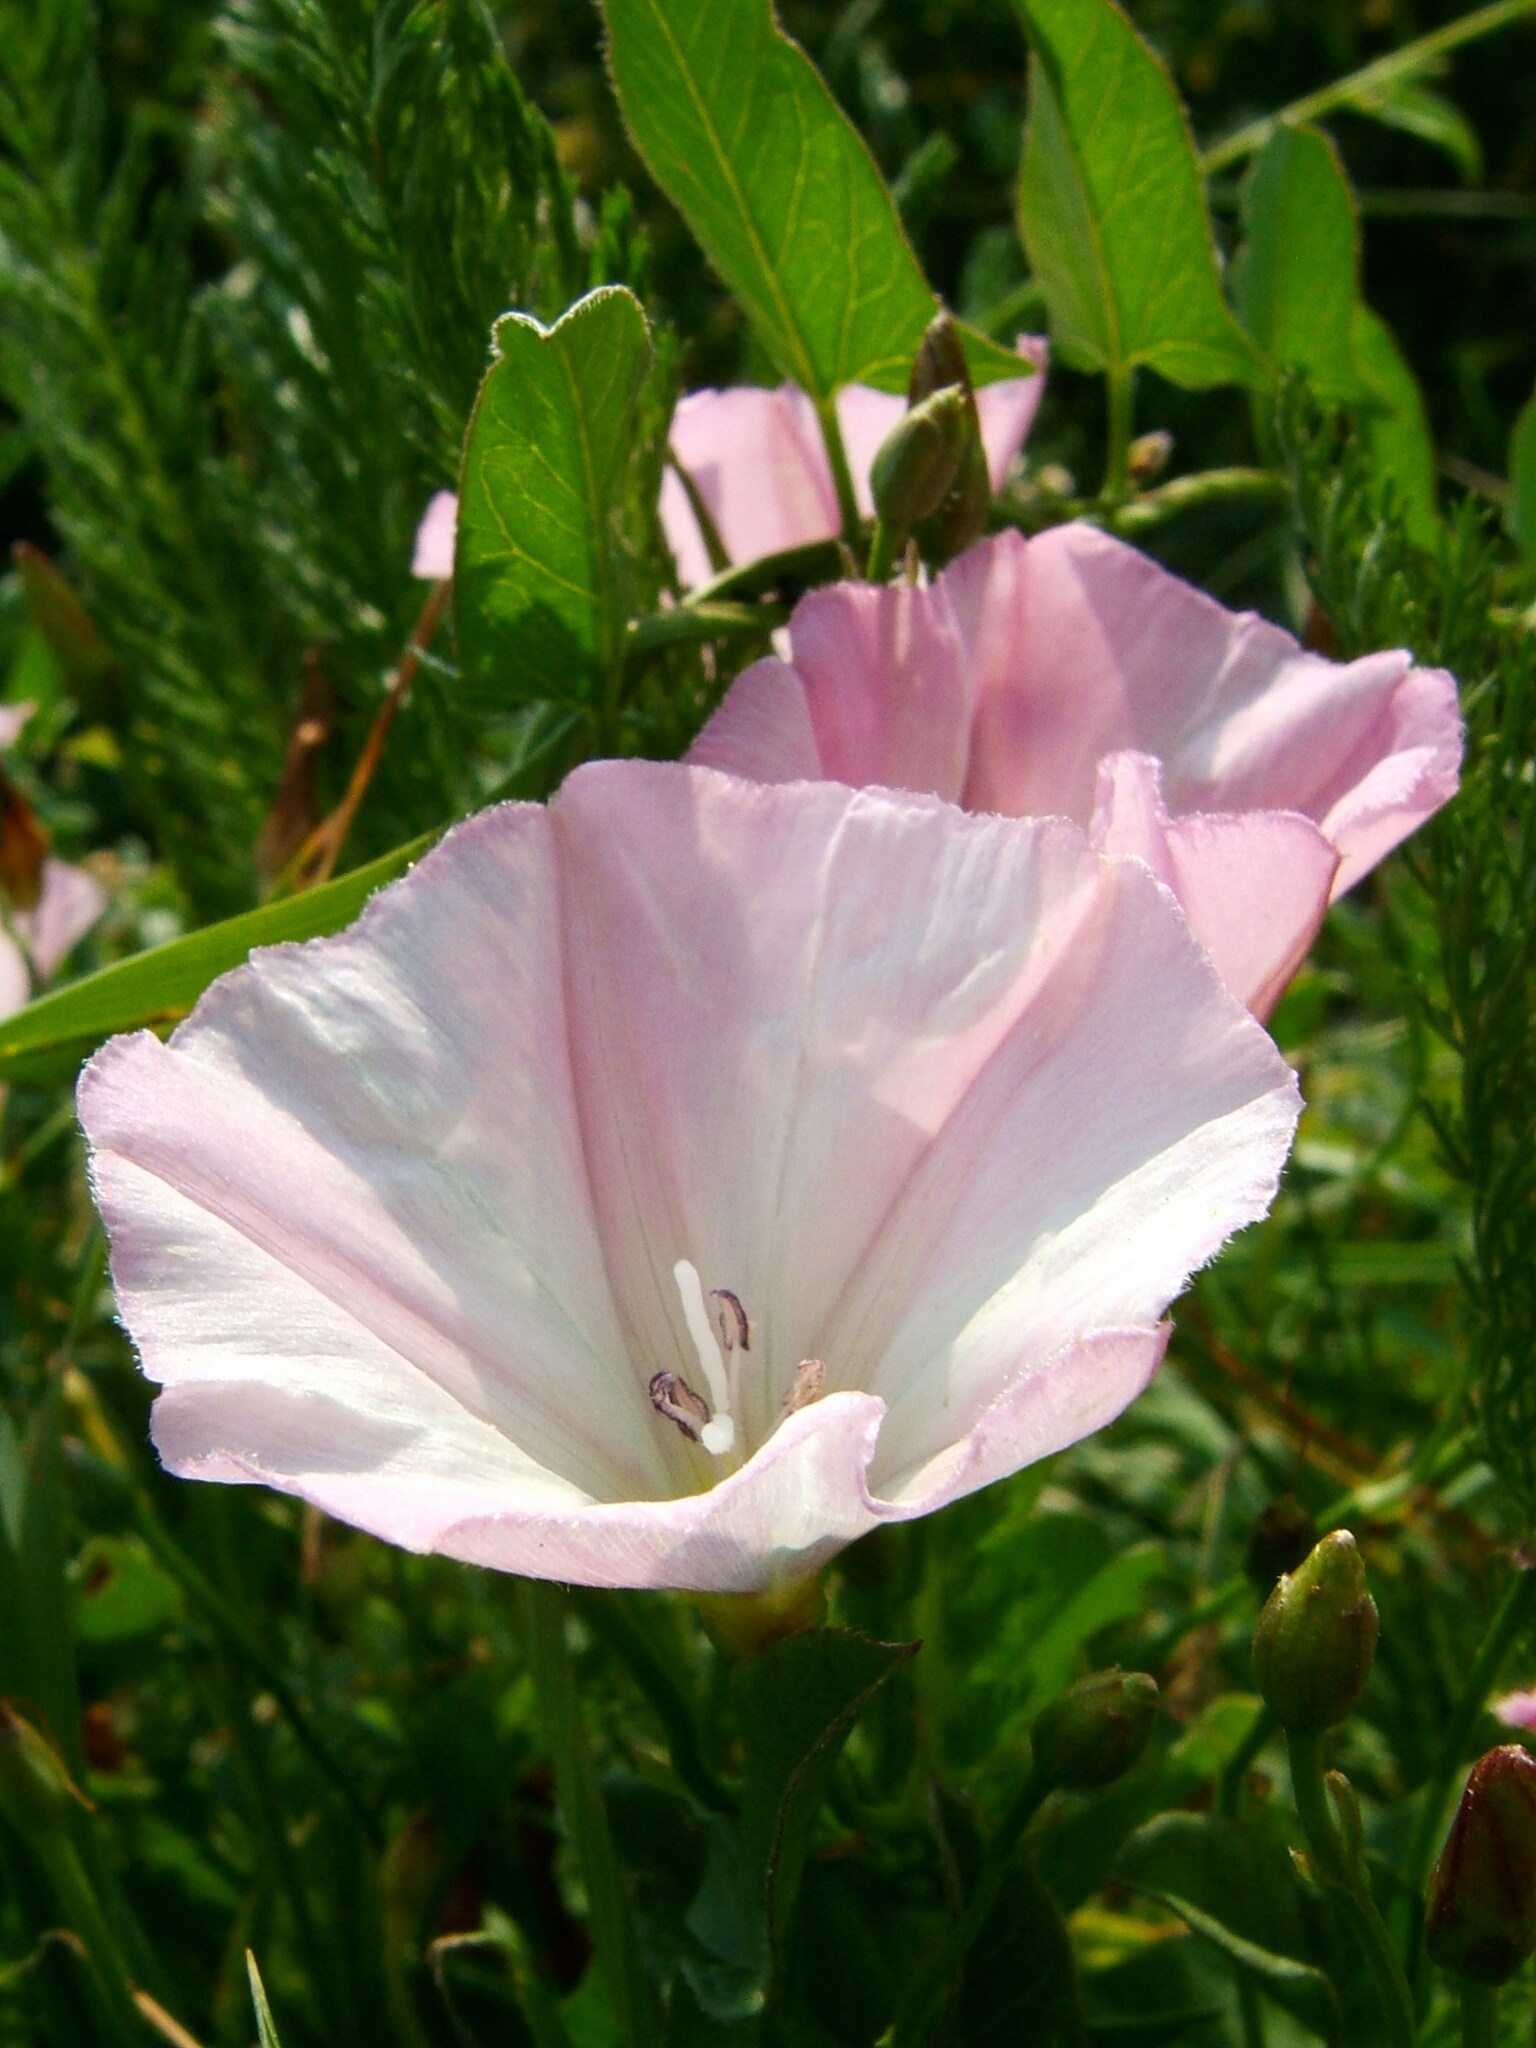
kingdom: Plantae
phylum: Tracheophyta
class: Magnoliopsida
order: Solanales
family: Convolvulaceae
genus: Convolvulus
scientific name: Convolvulus arvensis
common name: Field bindweed
